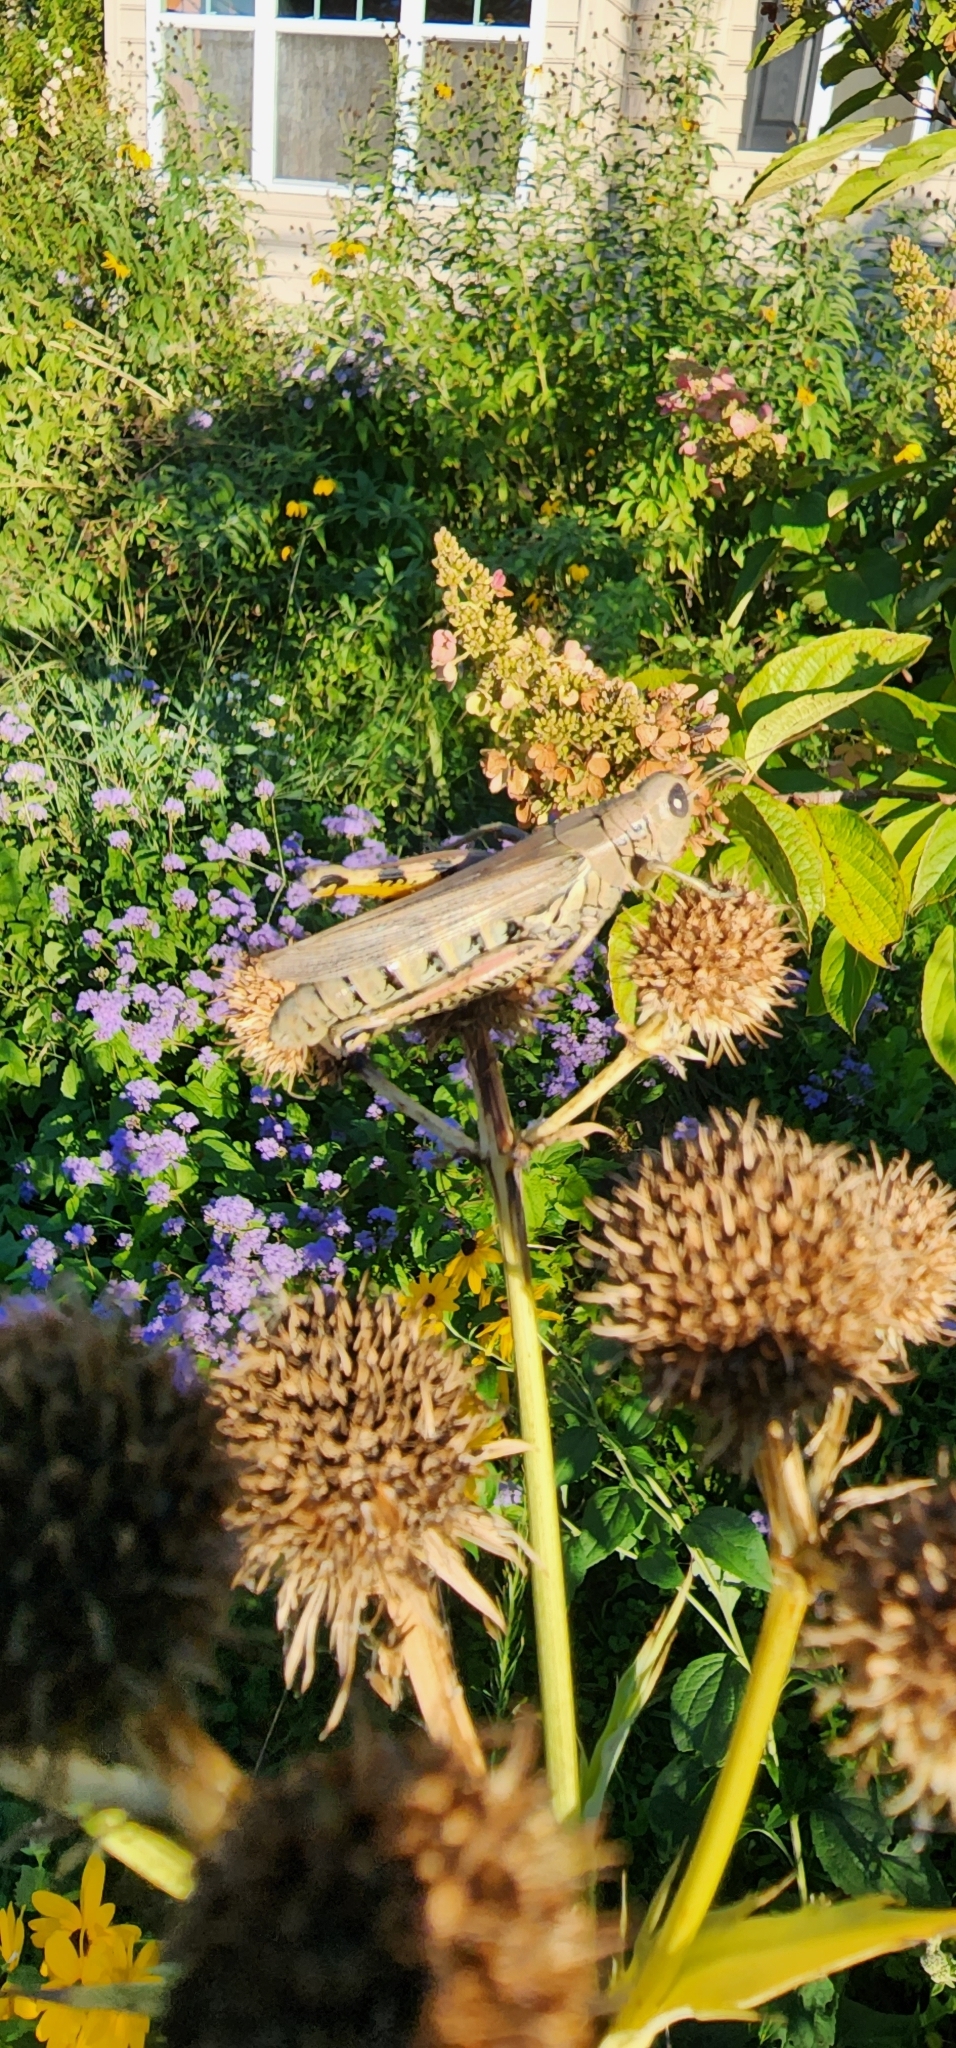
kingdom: Animalia
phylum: Arthropoda
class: Insecta
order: Orthoptera
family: Acrididae
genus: Melanoplus
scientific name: Melanoplus differentialis
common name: Differential grasshopper
